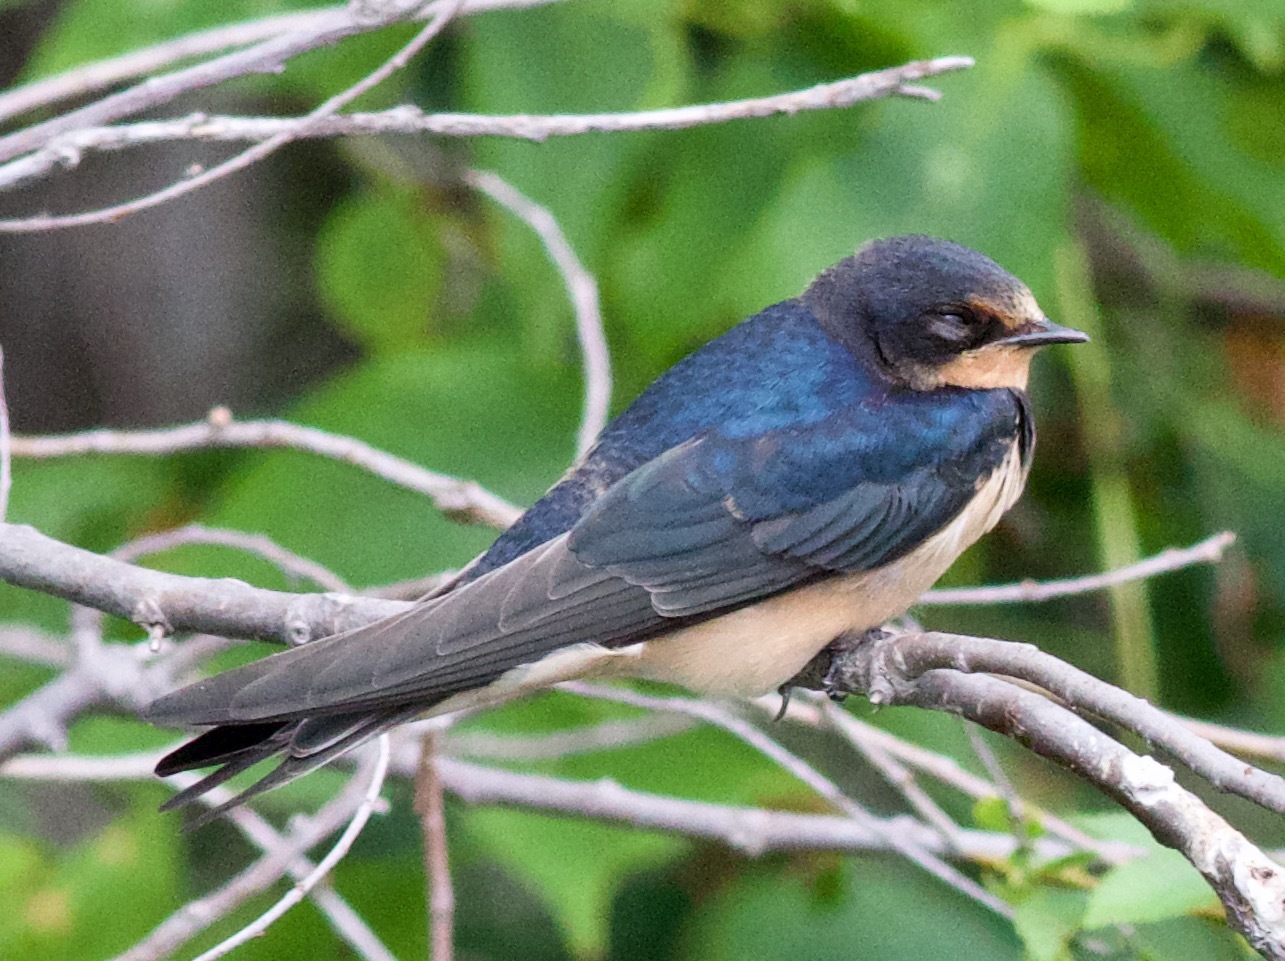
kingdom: Animalia
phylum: Chordata
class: Aves
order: Passeriformes
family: Hirundinidae
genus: Hirundo
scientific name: Hirundo rustica
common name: Barn swallow
